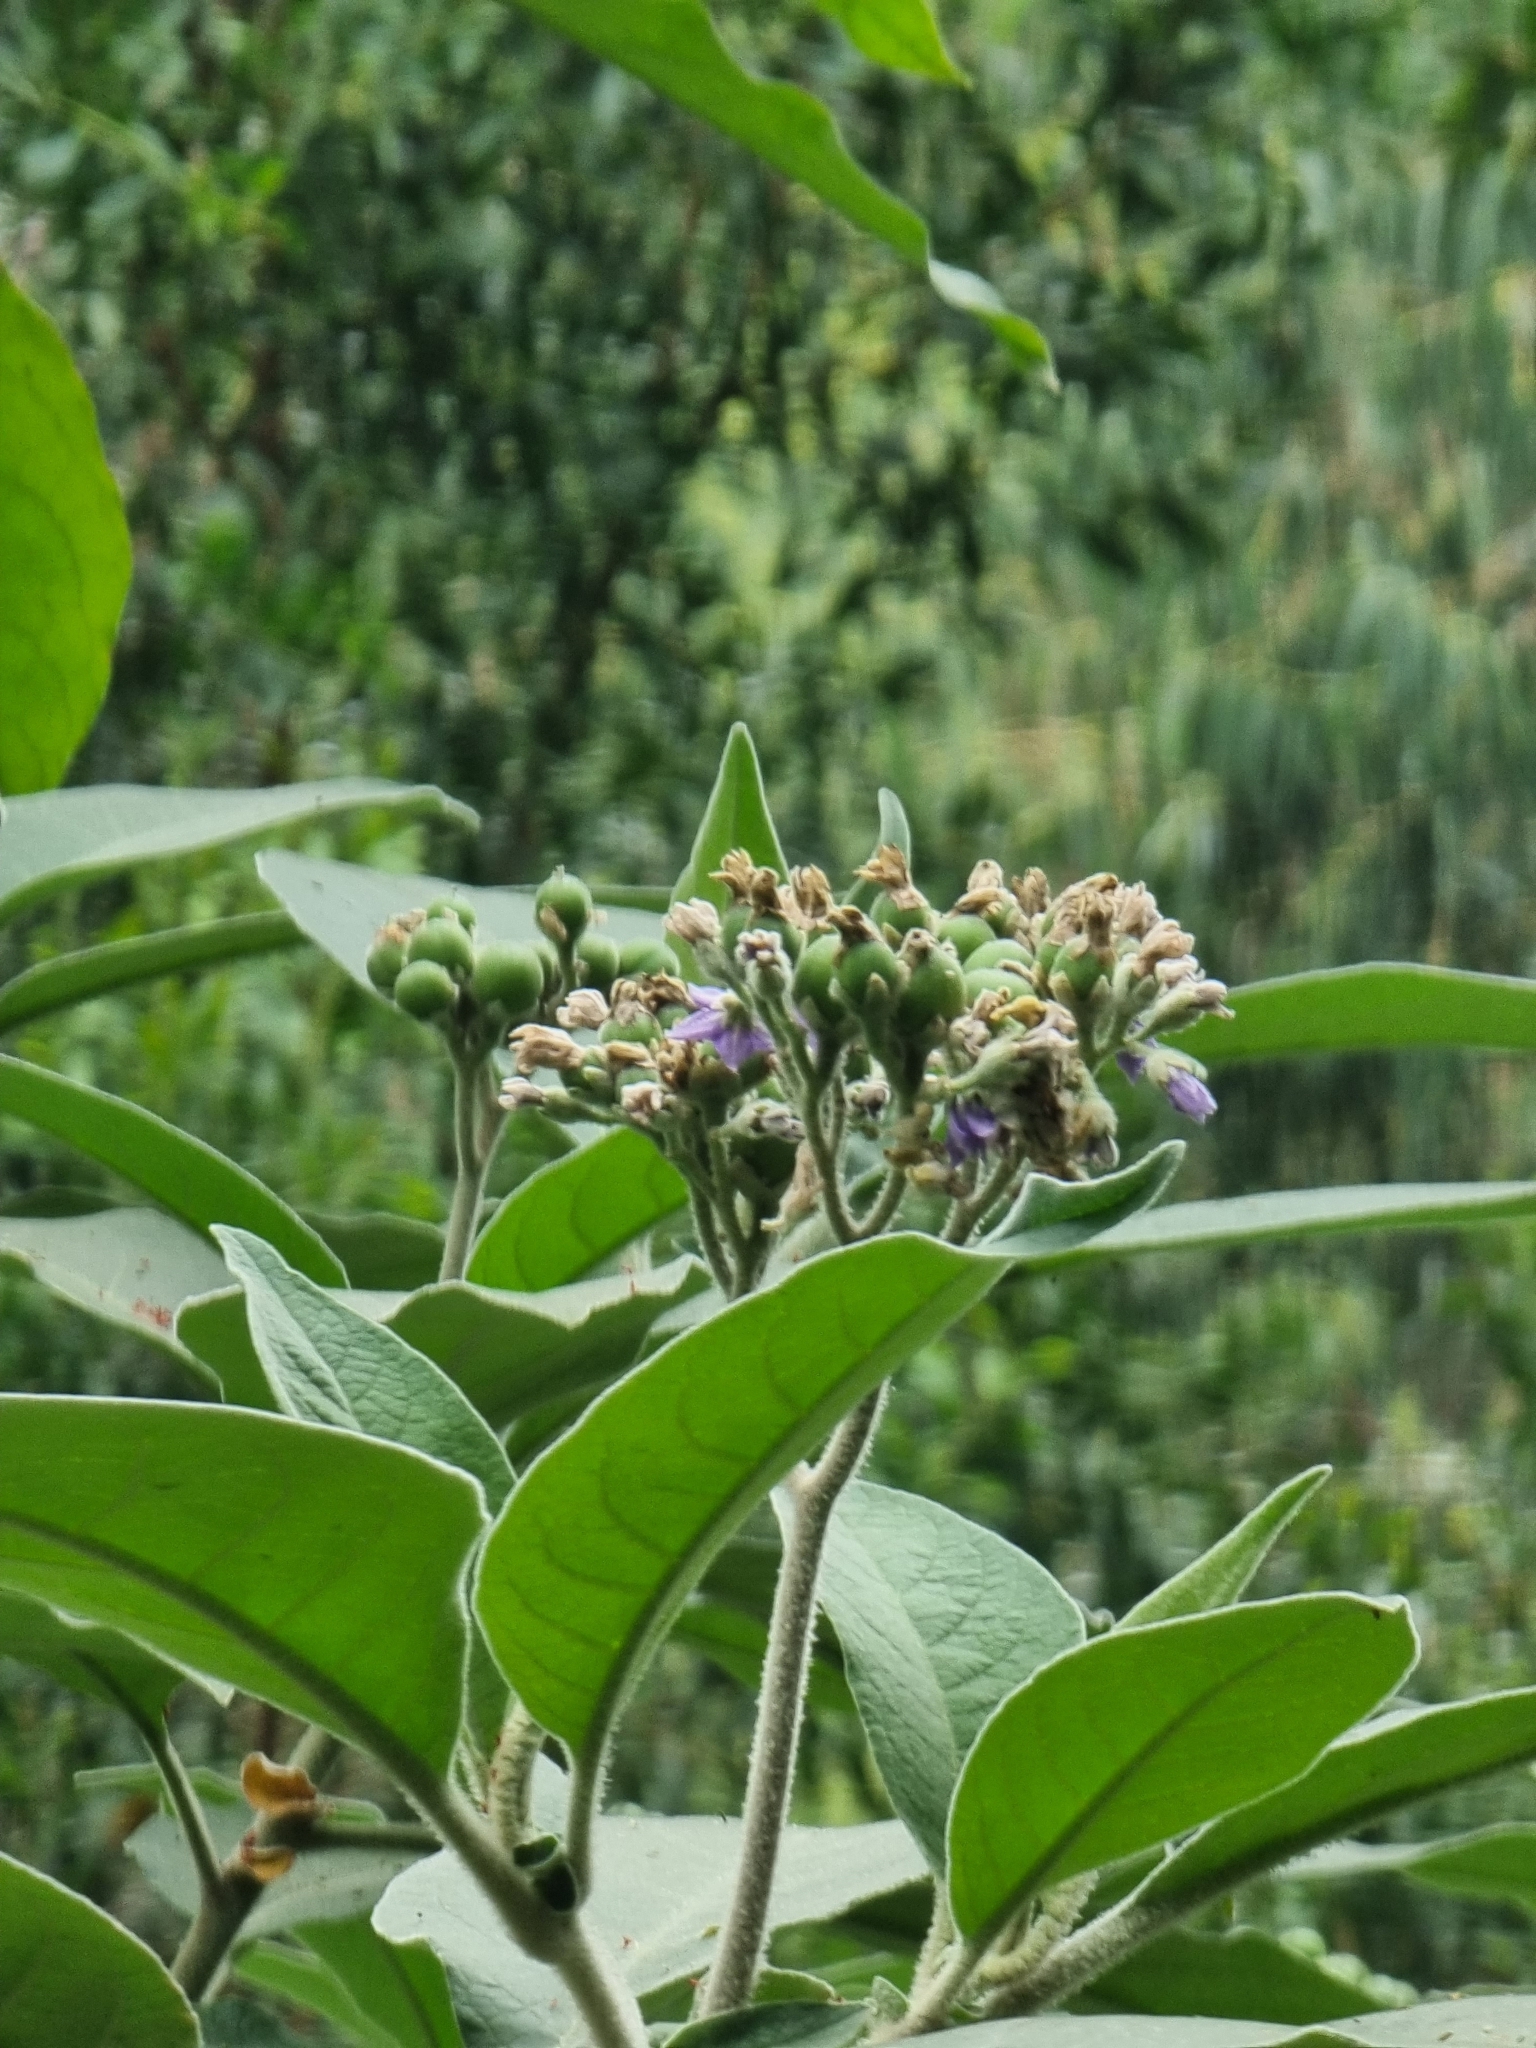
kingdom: Plantae
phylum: Tracheophyta
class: Magnoliopsida
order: Solanales
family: Solanaceae
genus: Solanum
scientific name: Solanum mauritianum
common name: Earleaf nightshade
